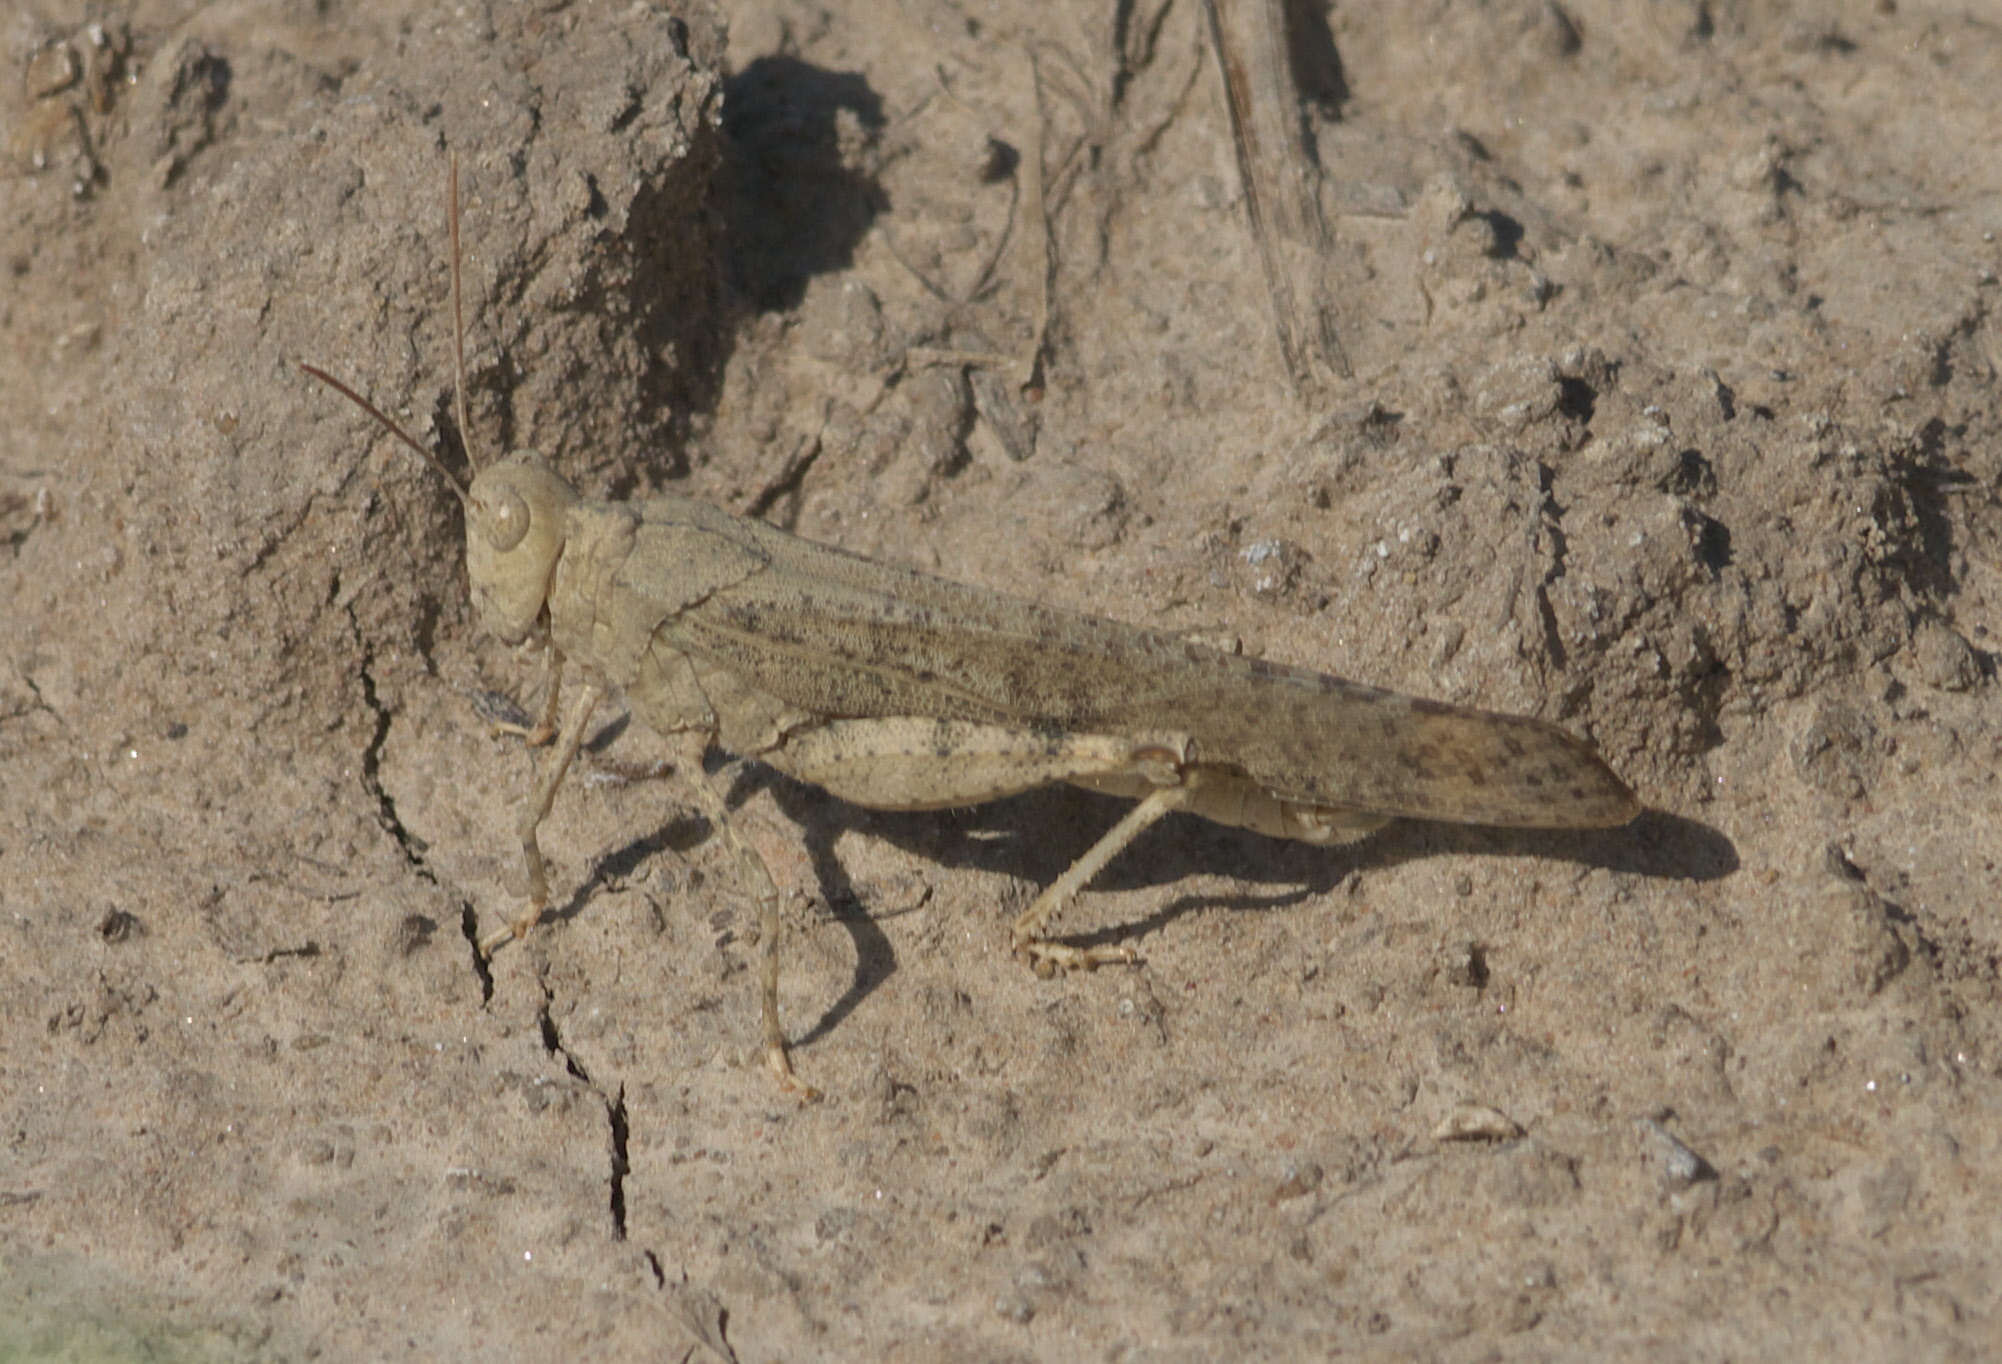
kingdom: Animalia
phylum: Arthropoda
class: Insecta
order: Orthoptera
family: Acrididae
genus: Dissosteira
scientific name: Dissosteira carolina
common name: Carolina grasshopper
